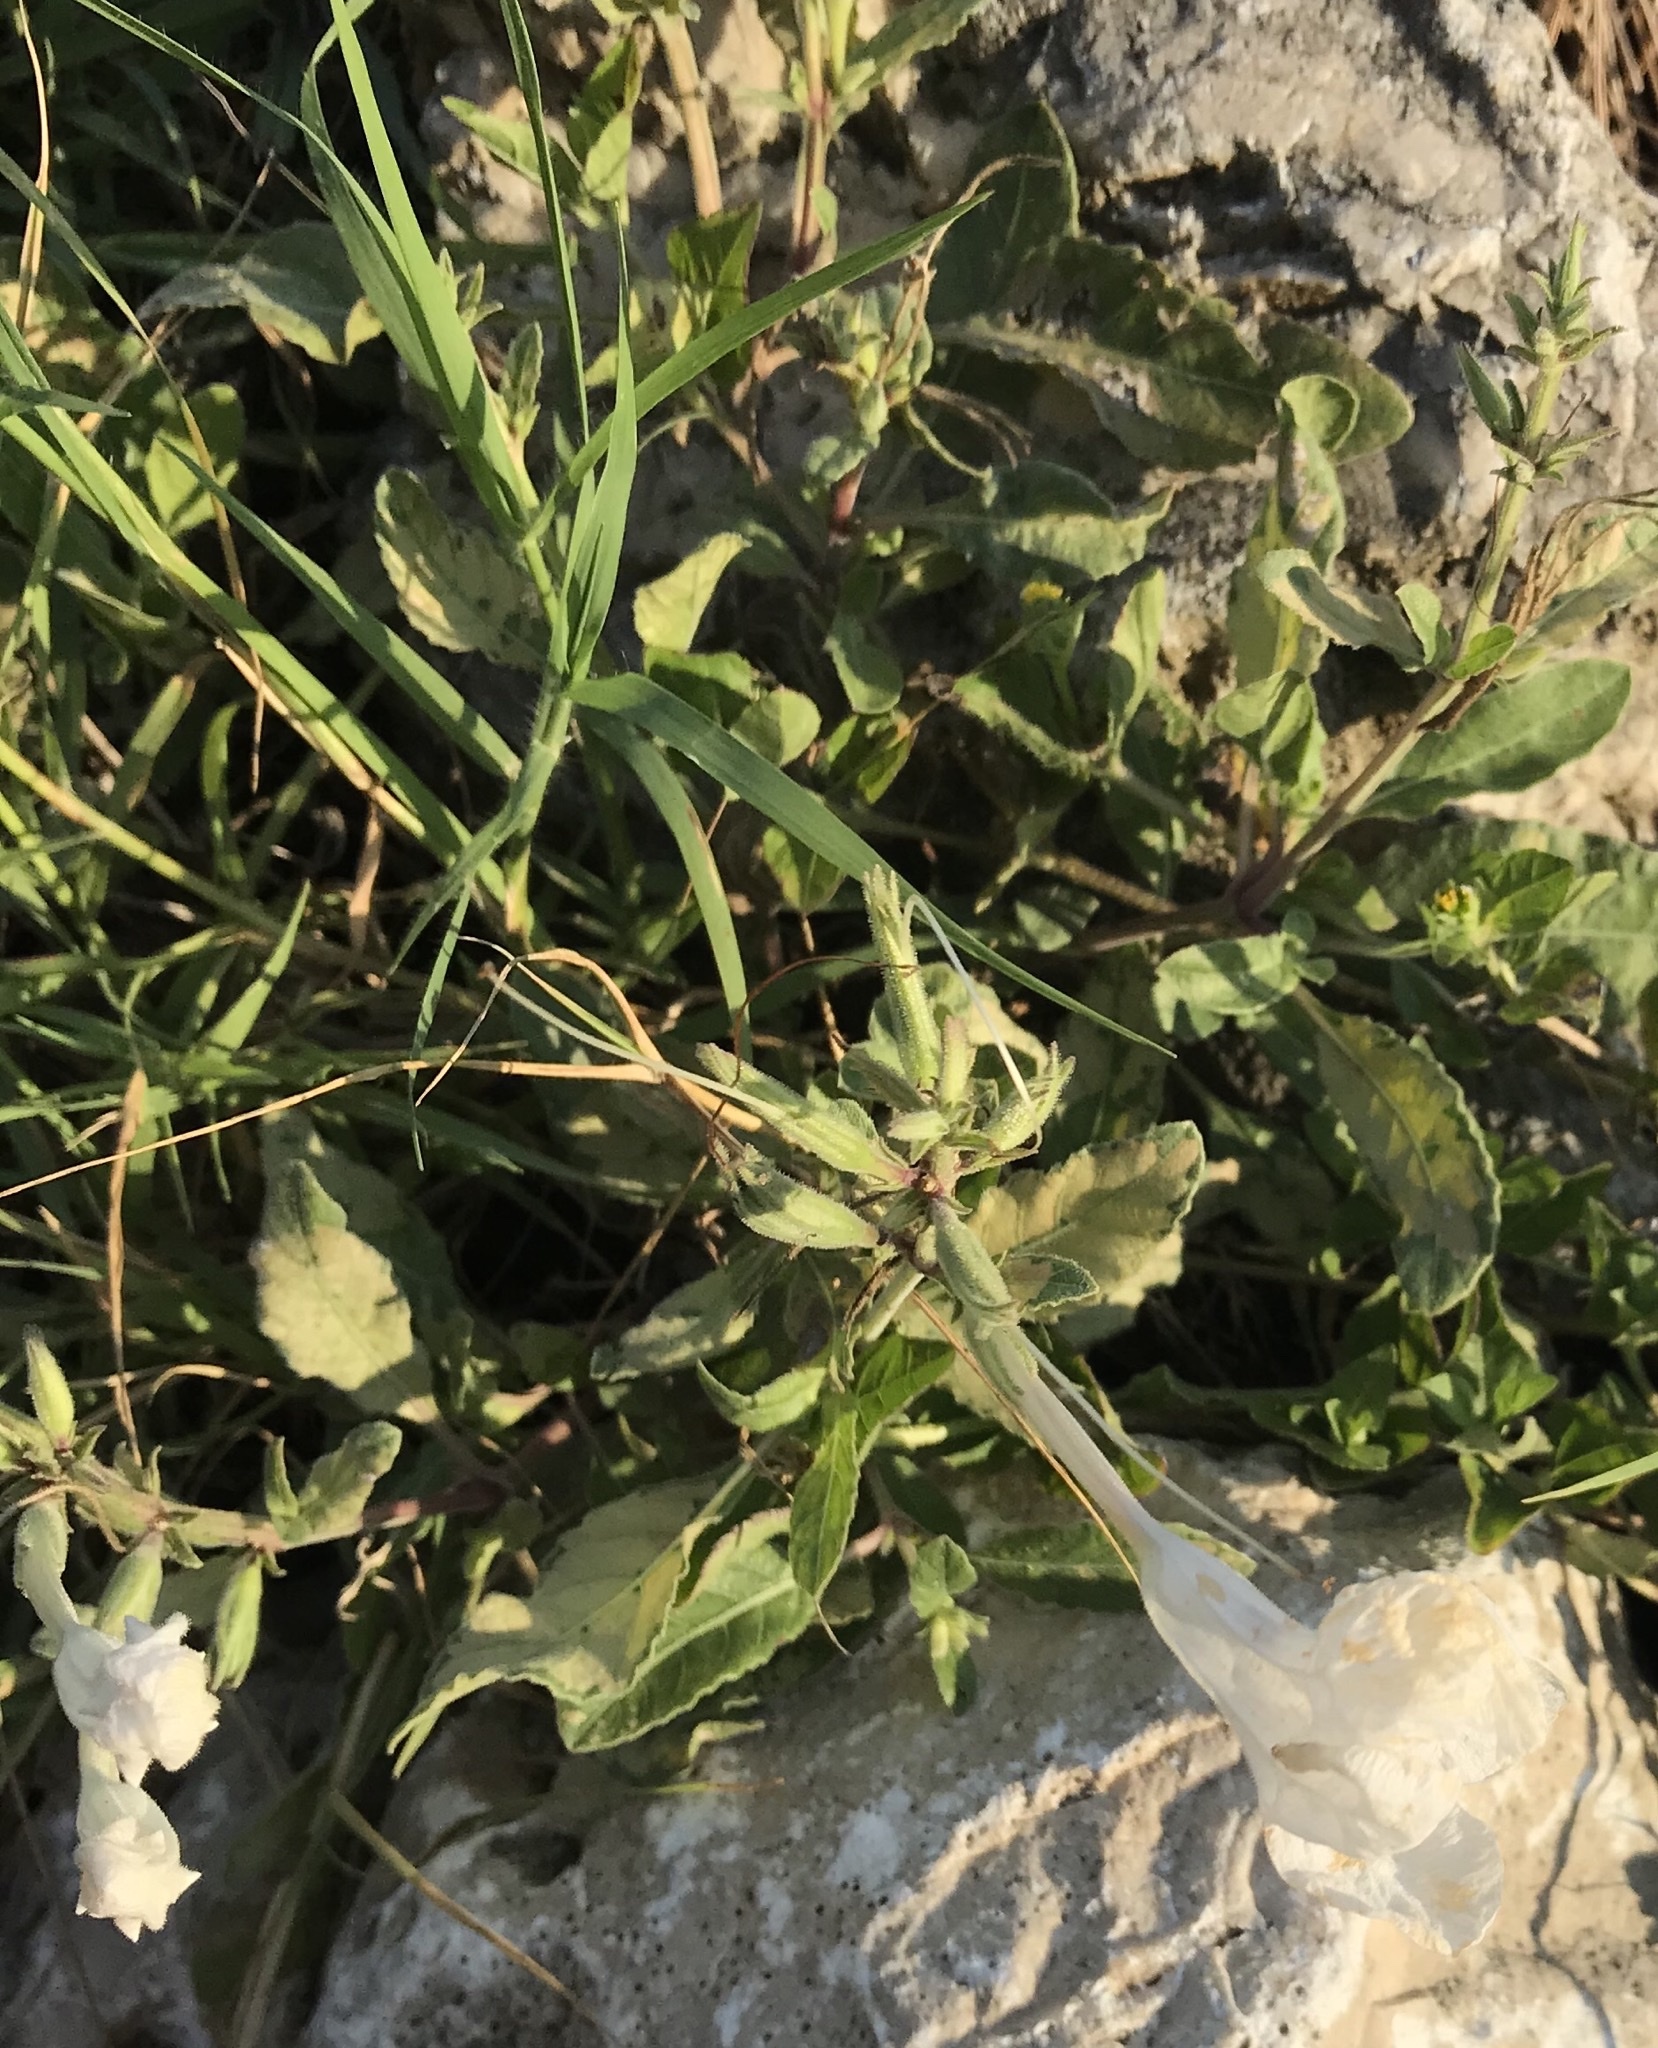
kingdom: Plantae
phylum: Tracheophyta
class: Magnoliopsida
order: Lamiales
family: Acanthaceae
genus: Ruellia
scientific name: Ruellia metziae
